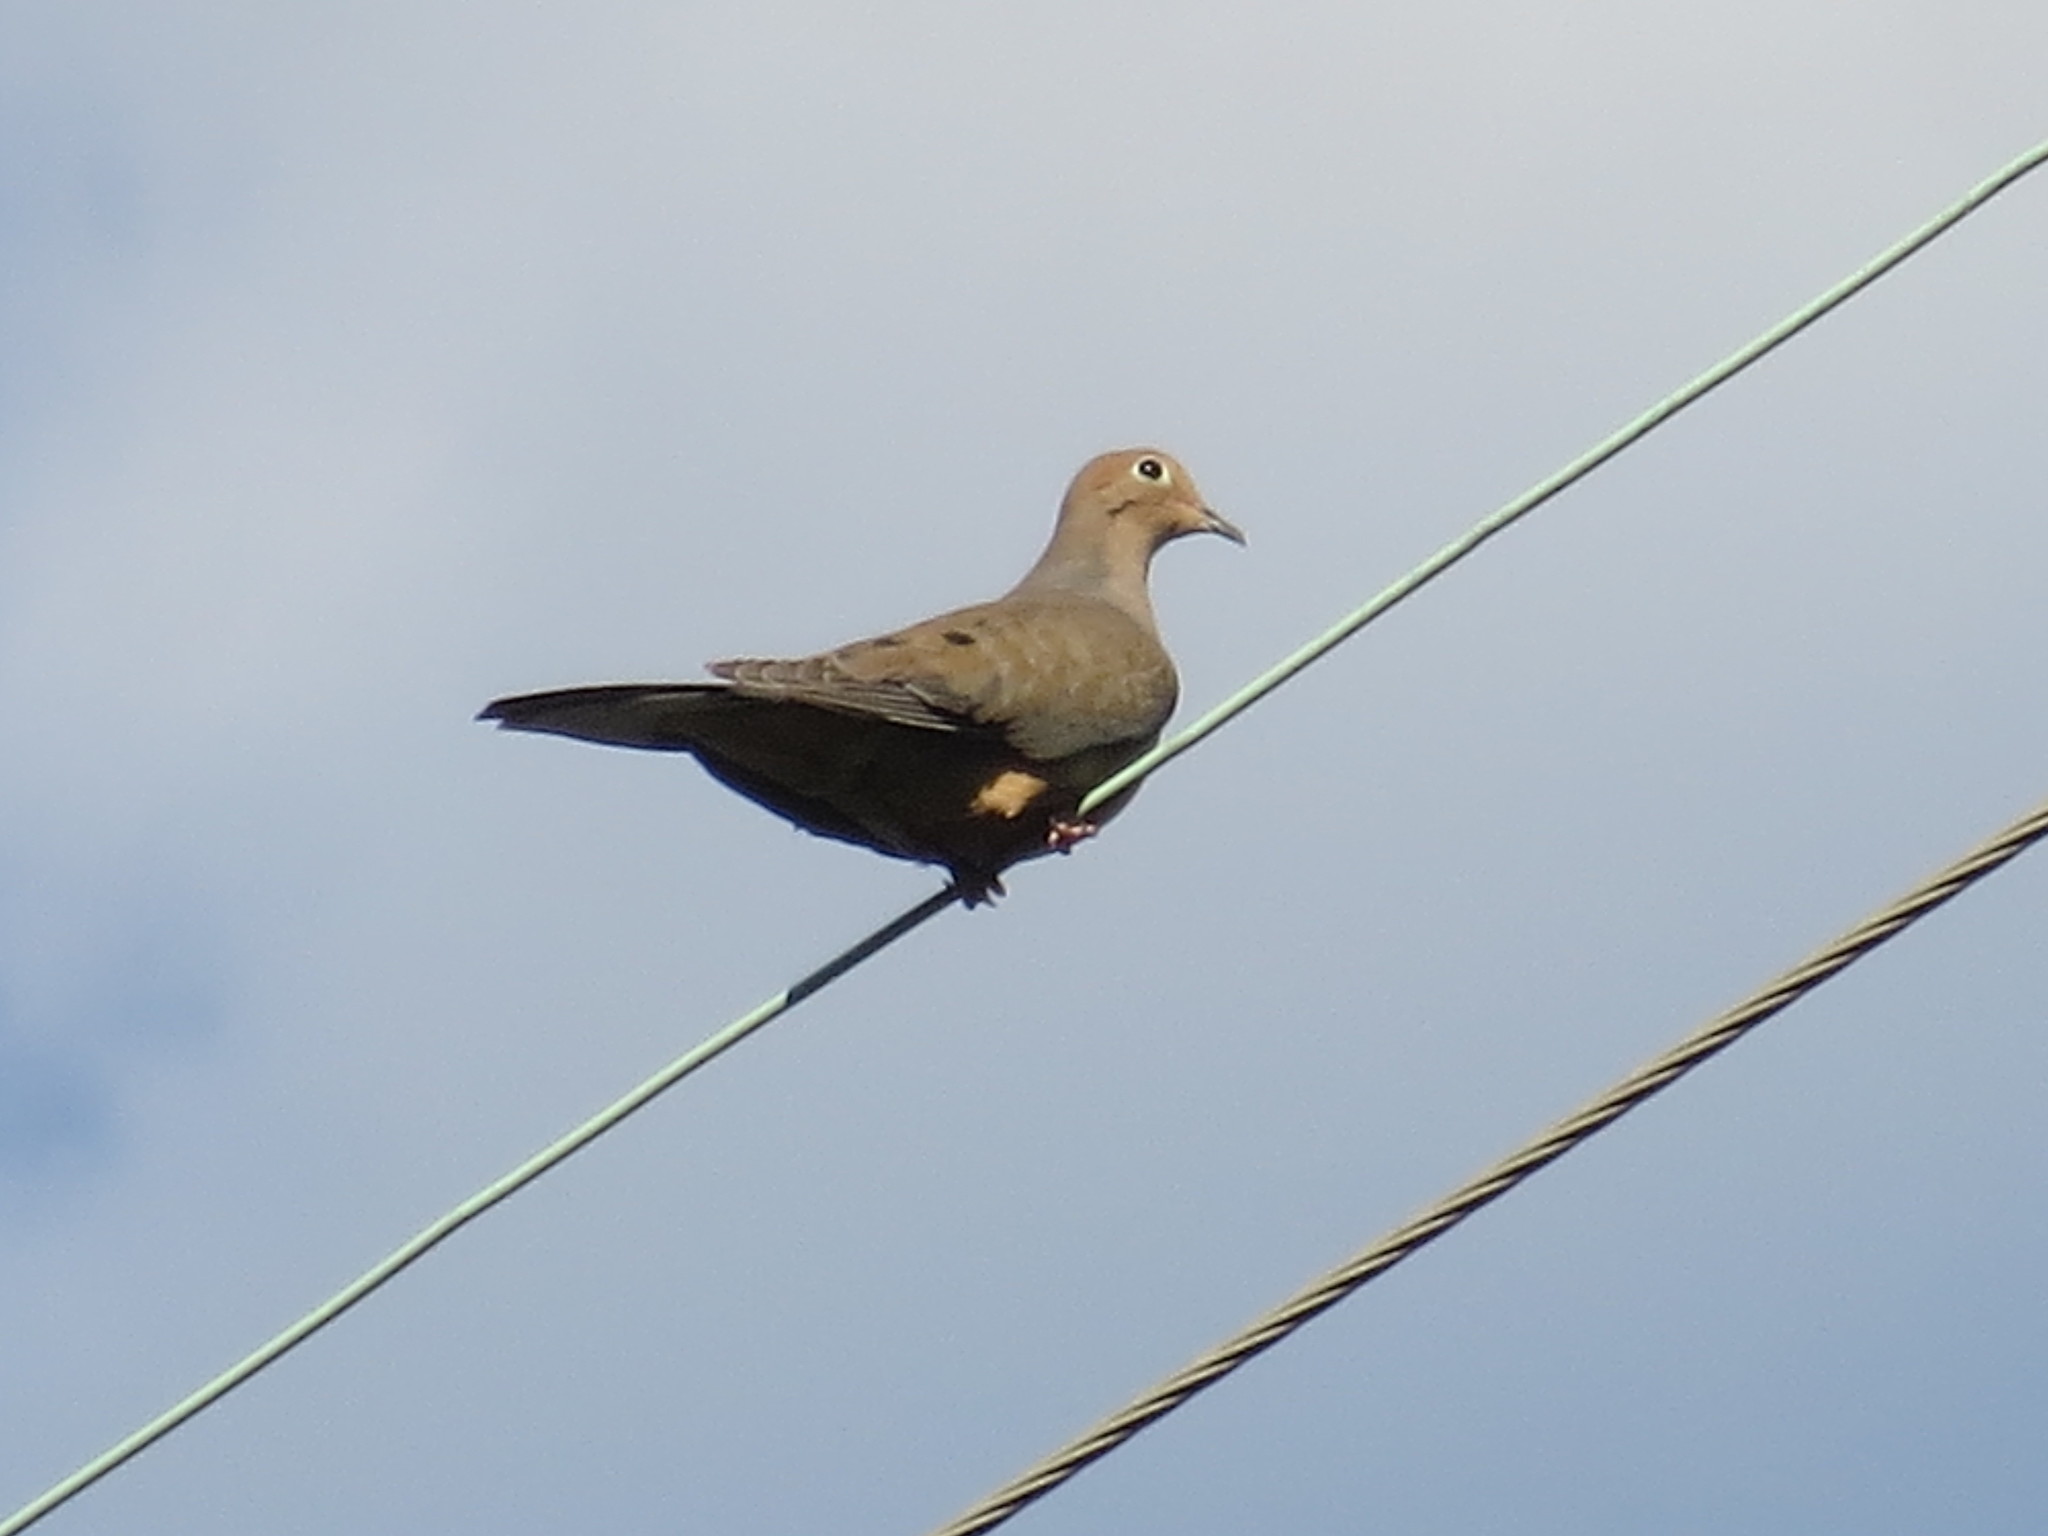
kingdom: Animalia
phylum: Chordata
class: Aves
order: Columbiformes
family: Columbidae
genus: Zenaida
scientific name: Zenaida macroura
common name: Mourning dove
